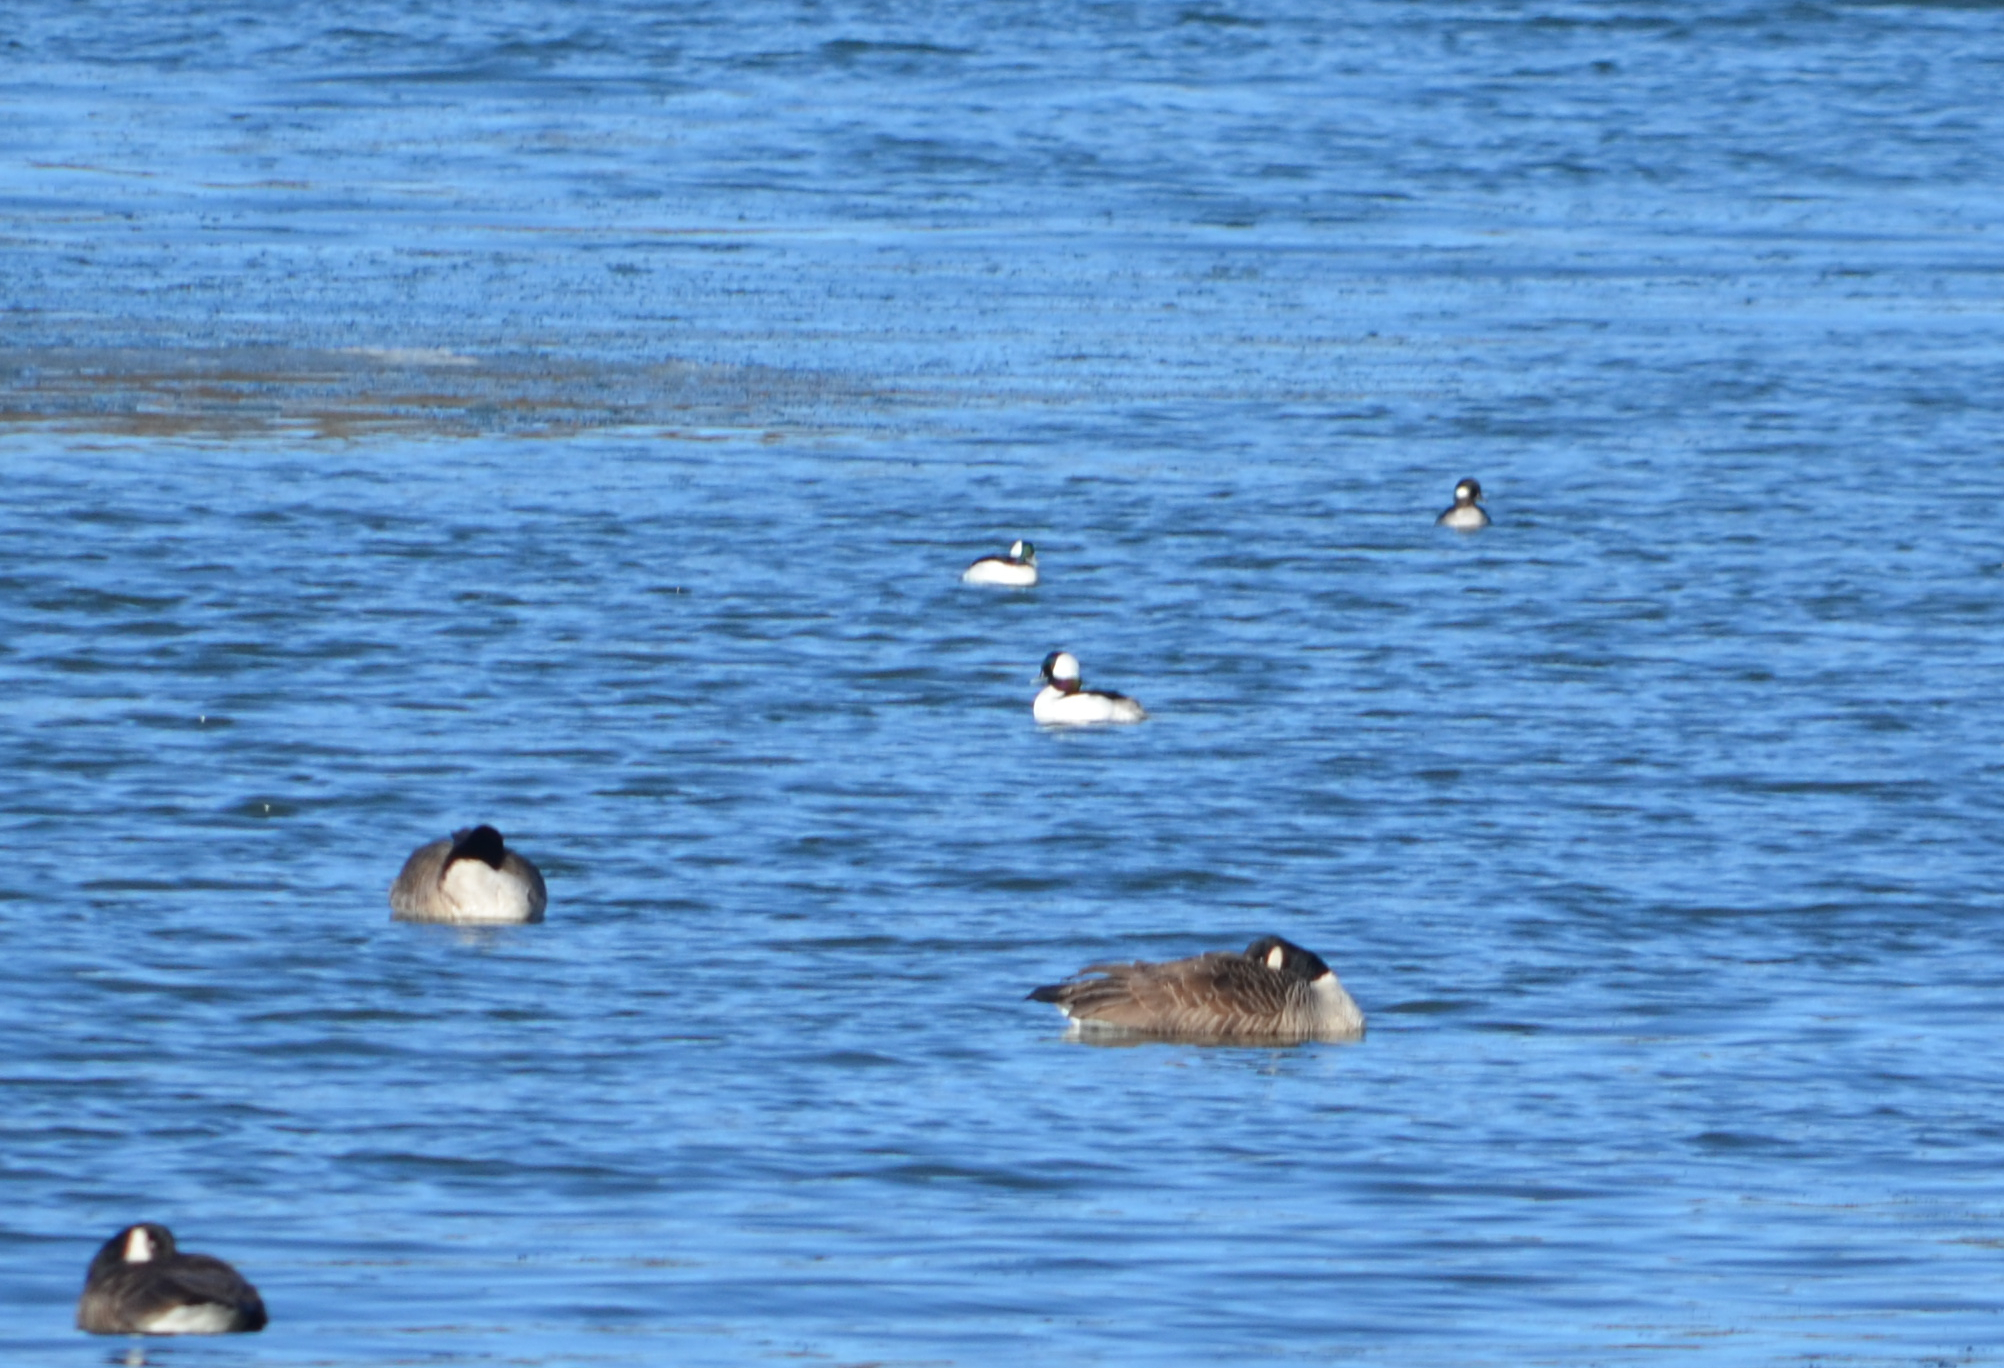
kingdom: Animalia
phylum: Chordata
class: Aves
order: Anseriformes
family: Anatidae
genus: Bucephala
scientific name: Bucephala albeola
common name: Bufflehead
